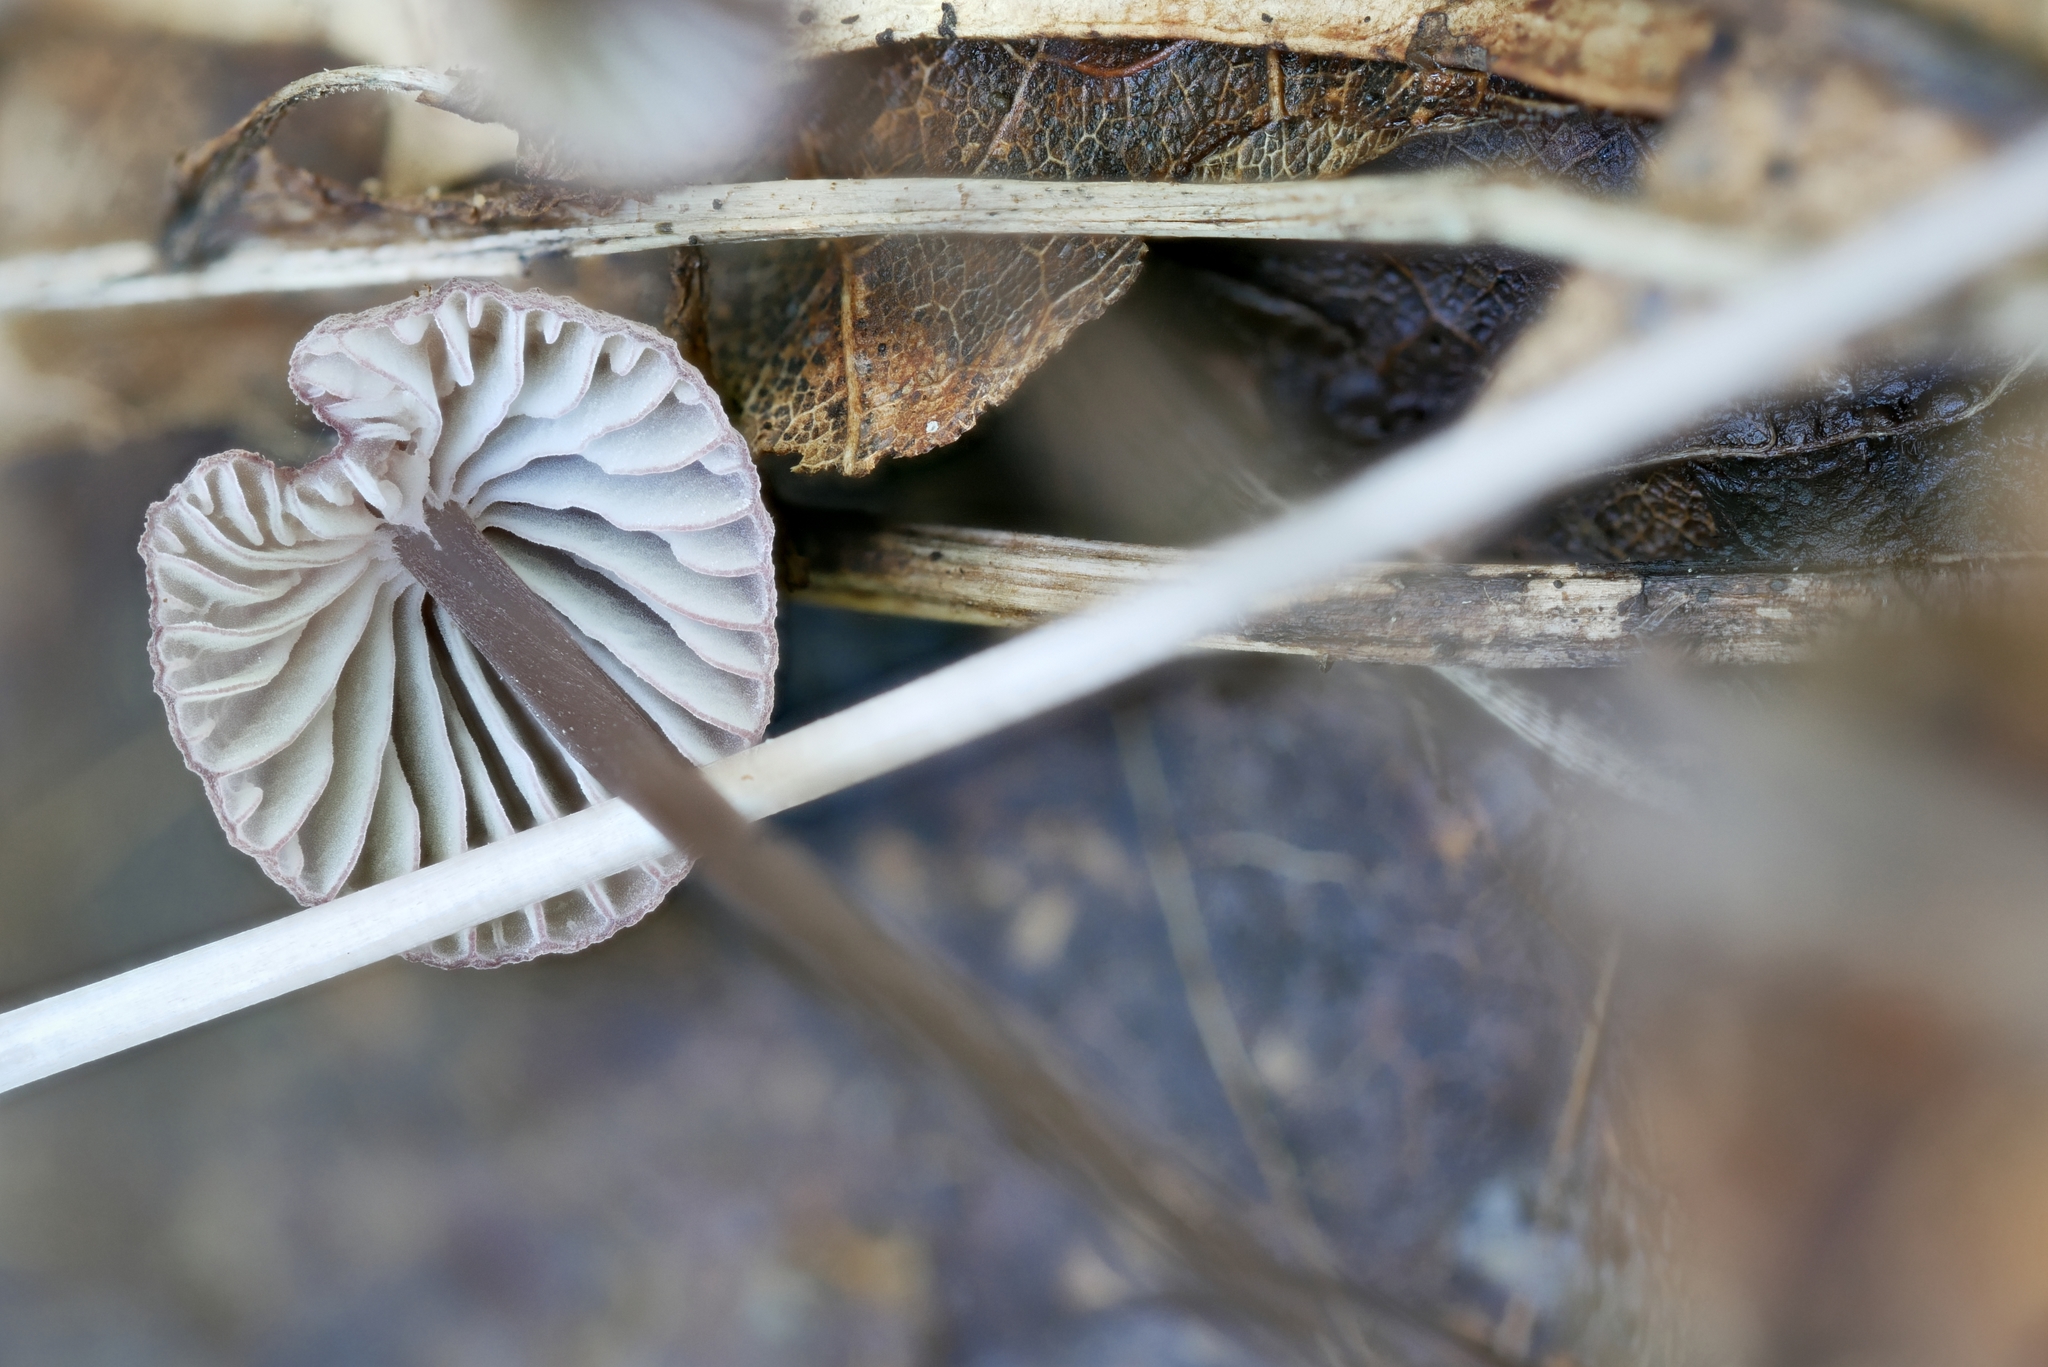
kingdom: Fungi
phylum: Basidiomycota
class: Agaricomycetes
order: Agaricales
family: Mycenaceae
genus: Mycena
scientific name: Mycena purpureofusca
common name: Purple edge bonnet
